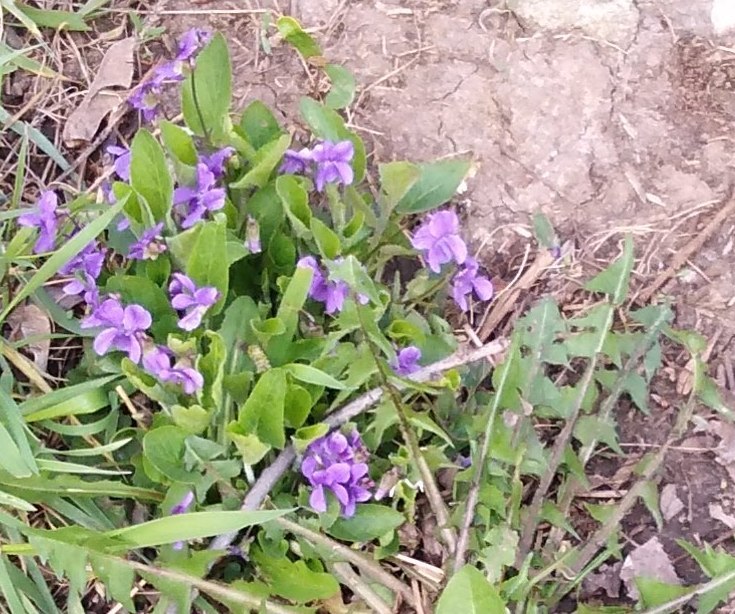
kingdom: Plantae
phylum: Tracheophyta
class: Magnoliopsida
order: Malpighiales
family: Violaceae
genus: Viola
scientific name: Viola hirta
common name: Hairy violet
